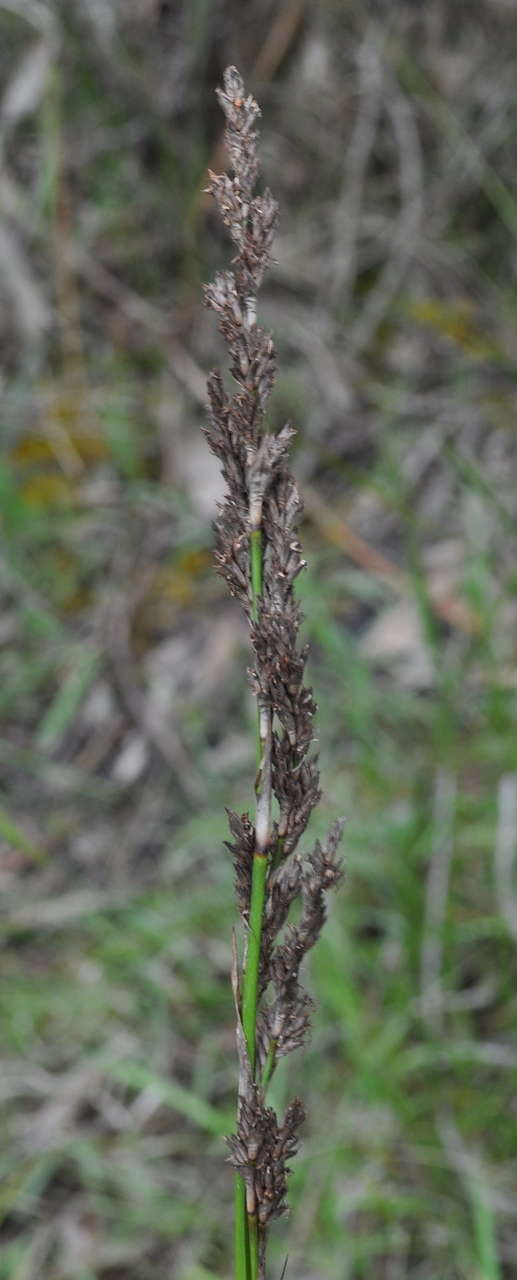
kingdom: Plantae
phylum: Tracheophyta
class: Liliopsida
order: Poales
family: Cyperaceae
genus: Lepidosperma
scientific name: Lepidosperma longitudinale
